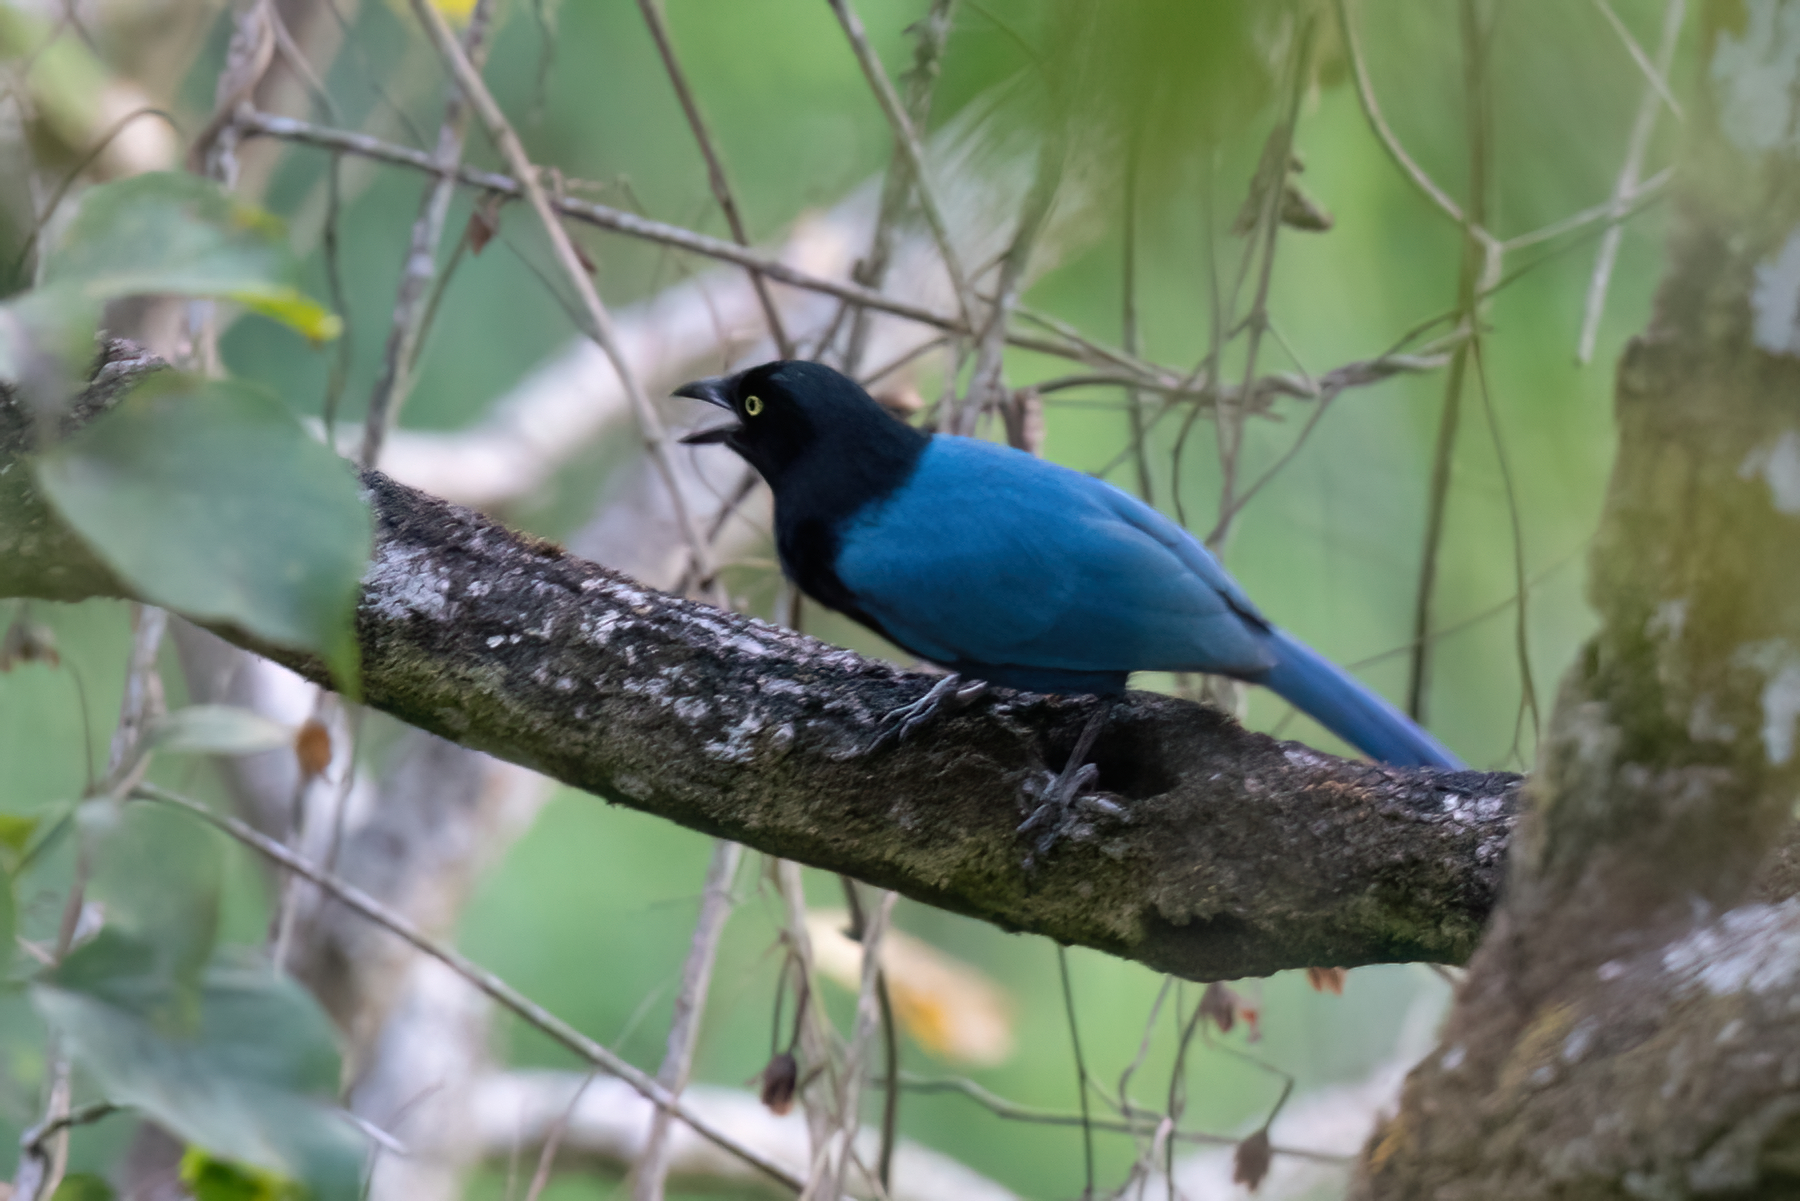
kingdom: Animalia
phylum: Chordata
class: Aves
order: Passeriformes
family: Corvidae
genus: Cyanocorax
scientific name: Cyanocorax melanocyaneus
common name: Bushy-crested jay
